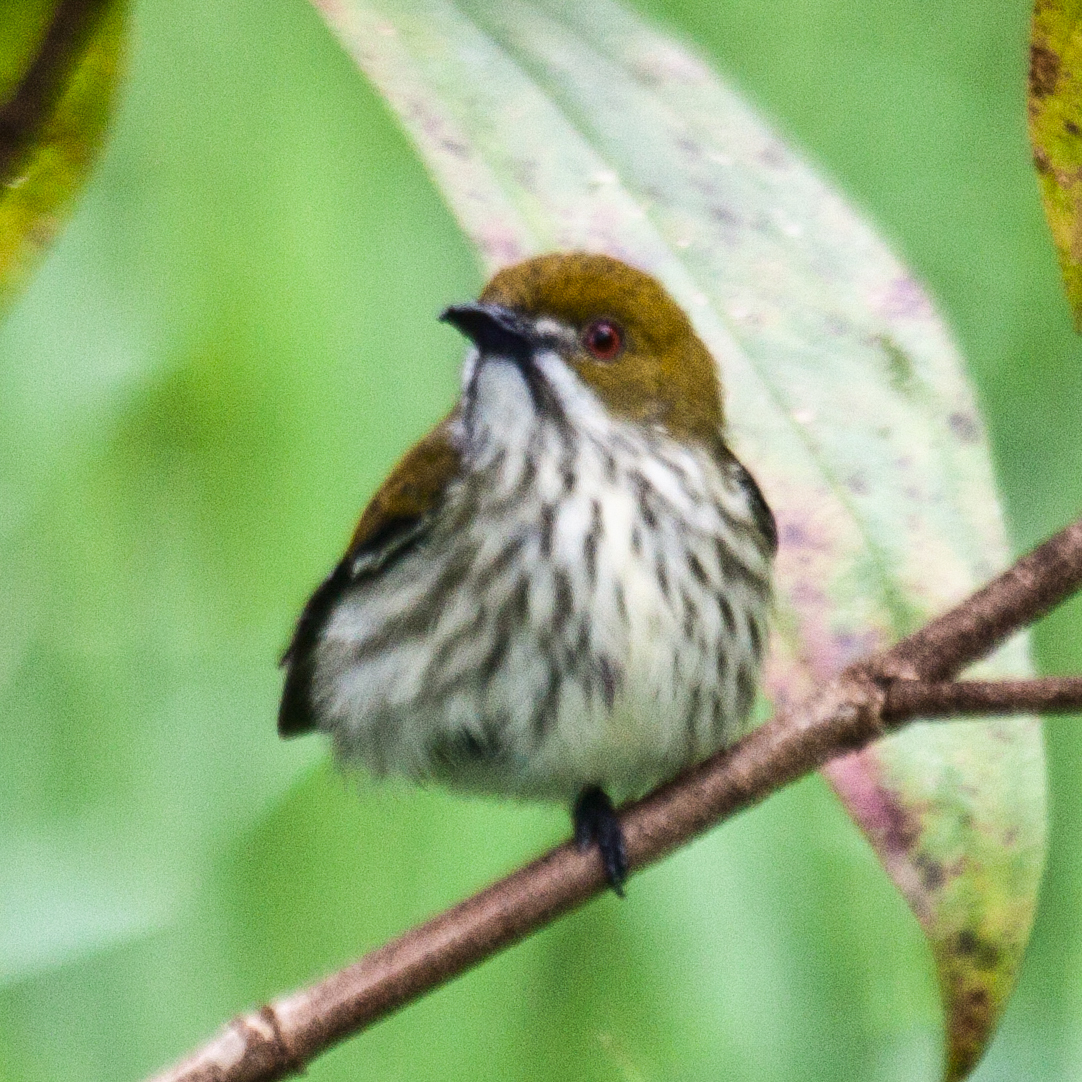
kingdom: Animalia
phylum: Chordata
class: Aves
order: Passeriformes
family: Dicaeidae
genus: Dicaeum
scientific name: Dicaeum chrysorrheum
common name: Yellow-vented flowerpecker
